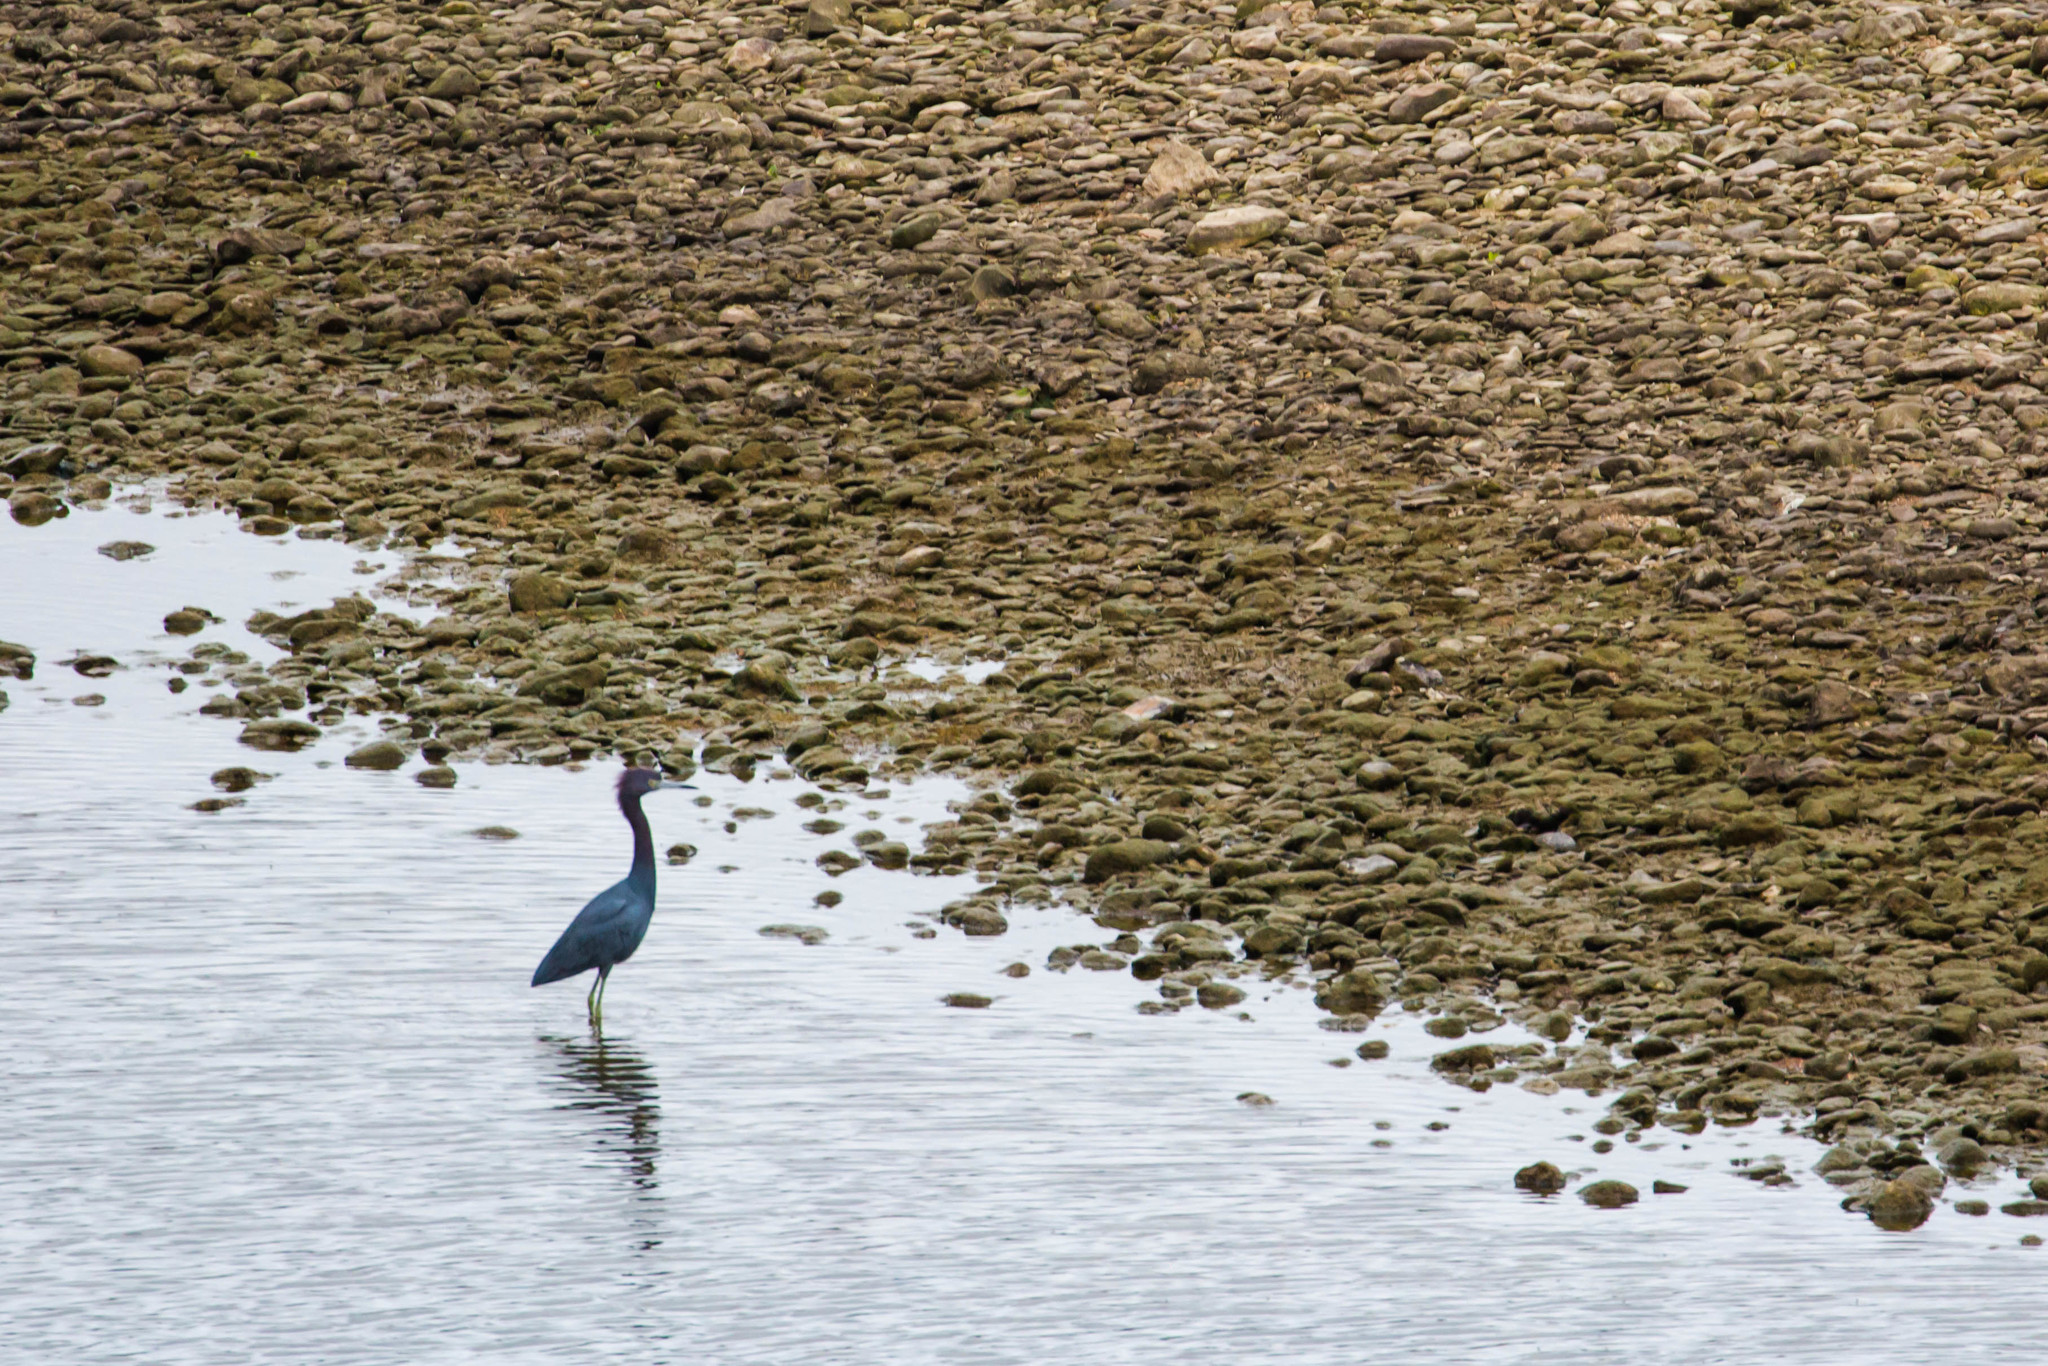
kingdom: Animalia
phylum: Chordata
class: Aves
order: Pelecaniformes
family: Ardeidae
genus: Egretta
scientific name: Egretta caerulea
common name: Little blue heron
